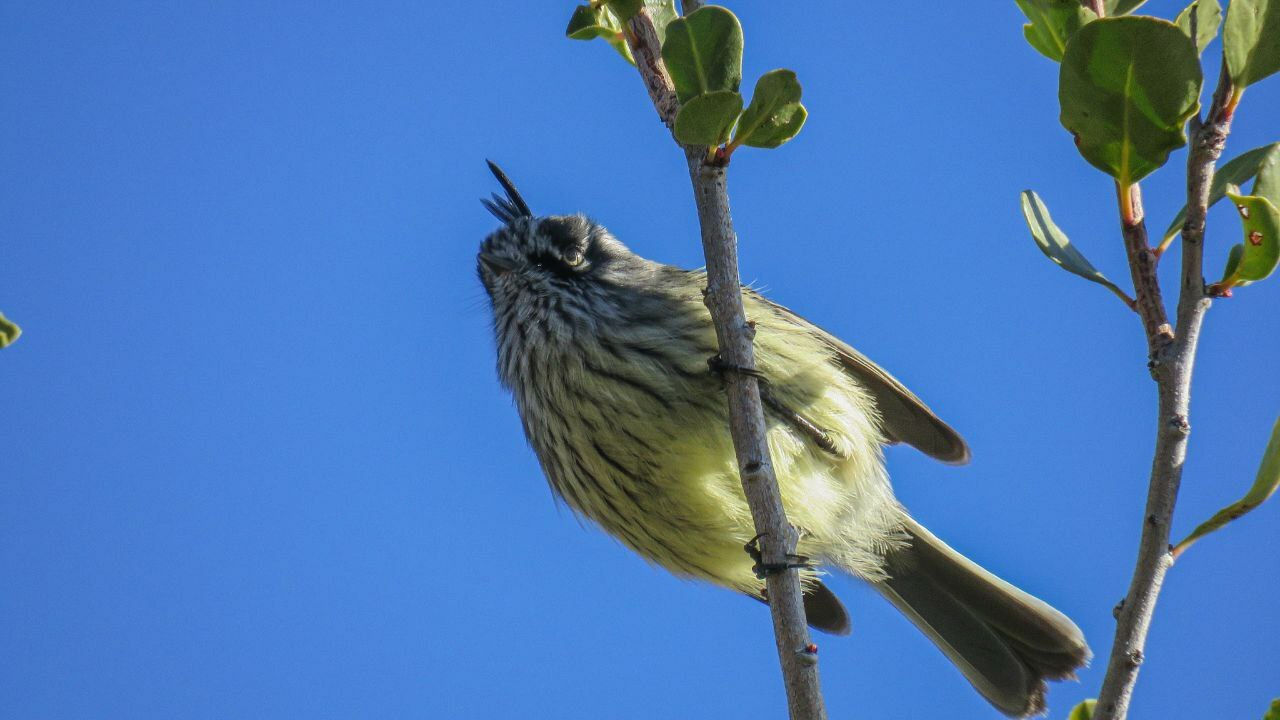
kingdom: Animalia
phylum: Chordata
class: Aves
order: Passeriformes
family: Tyrannidae
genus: Anairetes
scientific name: Anairetes parulus
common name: Tufted tit-tyrant
